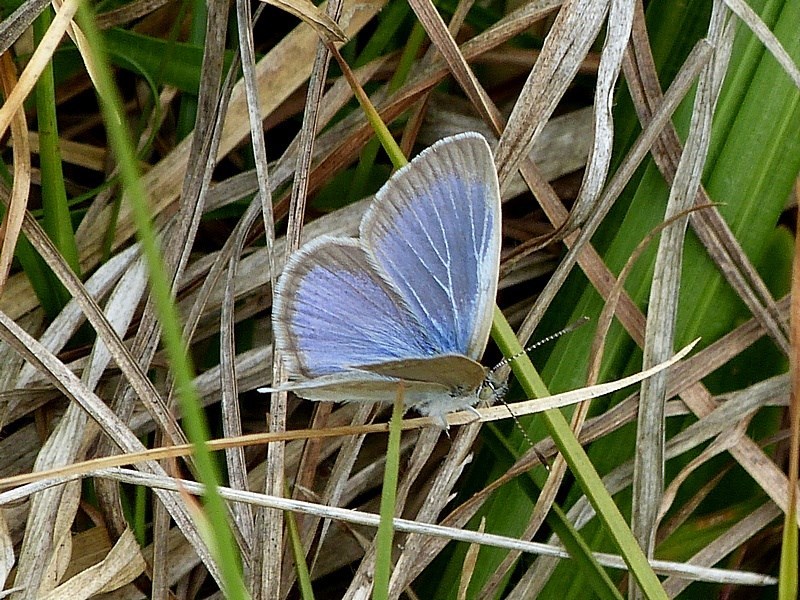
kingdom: Animalia
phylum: Arthropoda
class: Insecta
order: Lepidoptera
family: Lycaenidae
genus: Zizina
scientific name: Zizina labradus
